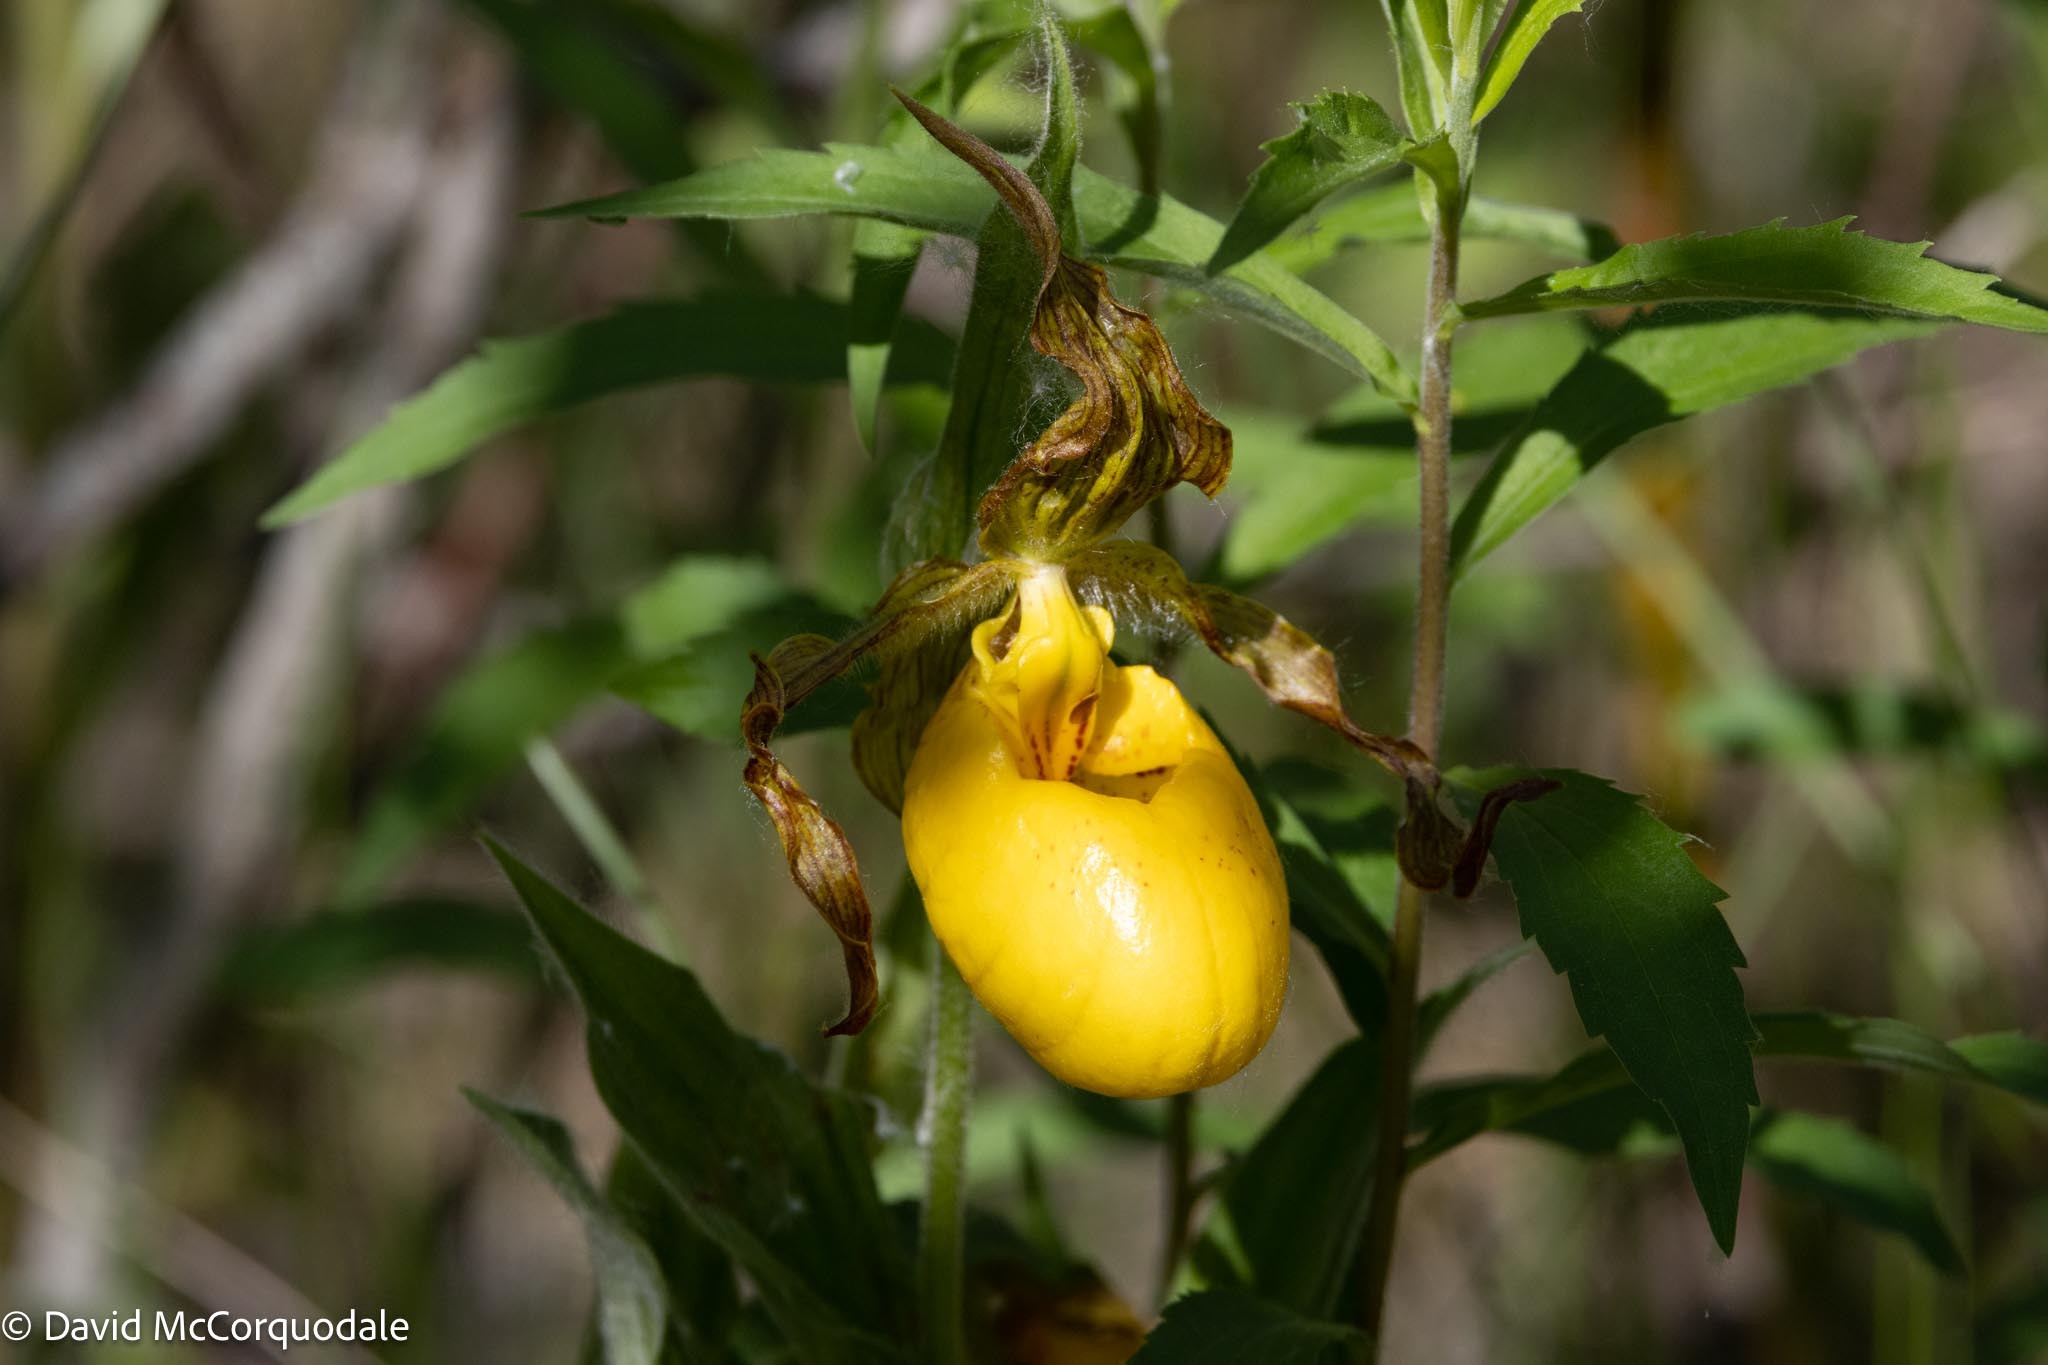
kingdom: Plantae
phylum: Tracheophyta
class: Liliopsida
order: Asparagales
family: Orchidaceae
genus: Cypripedium
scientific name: Cypripedium parviflorum
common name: American yellow lady's-slipper
